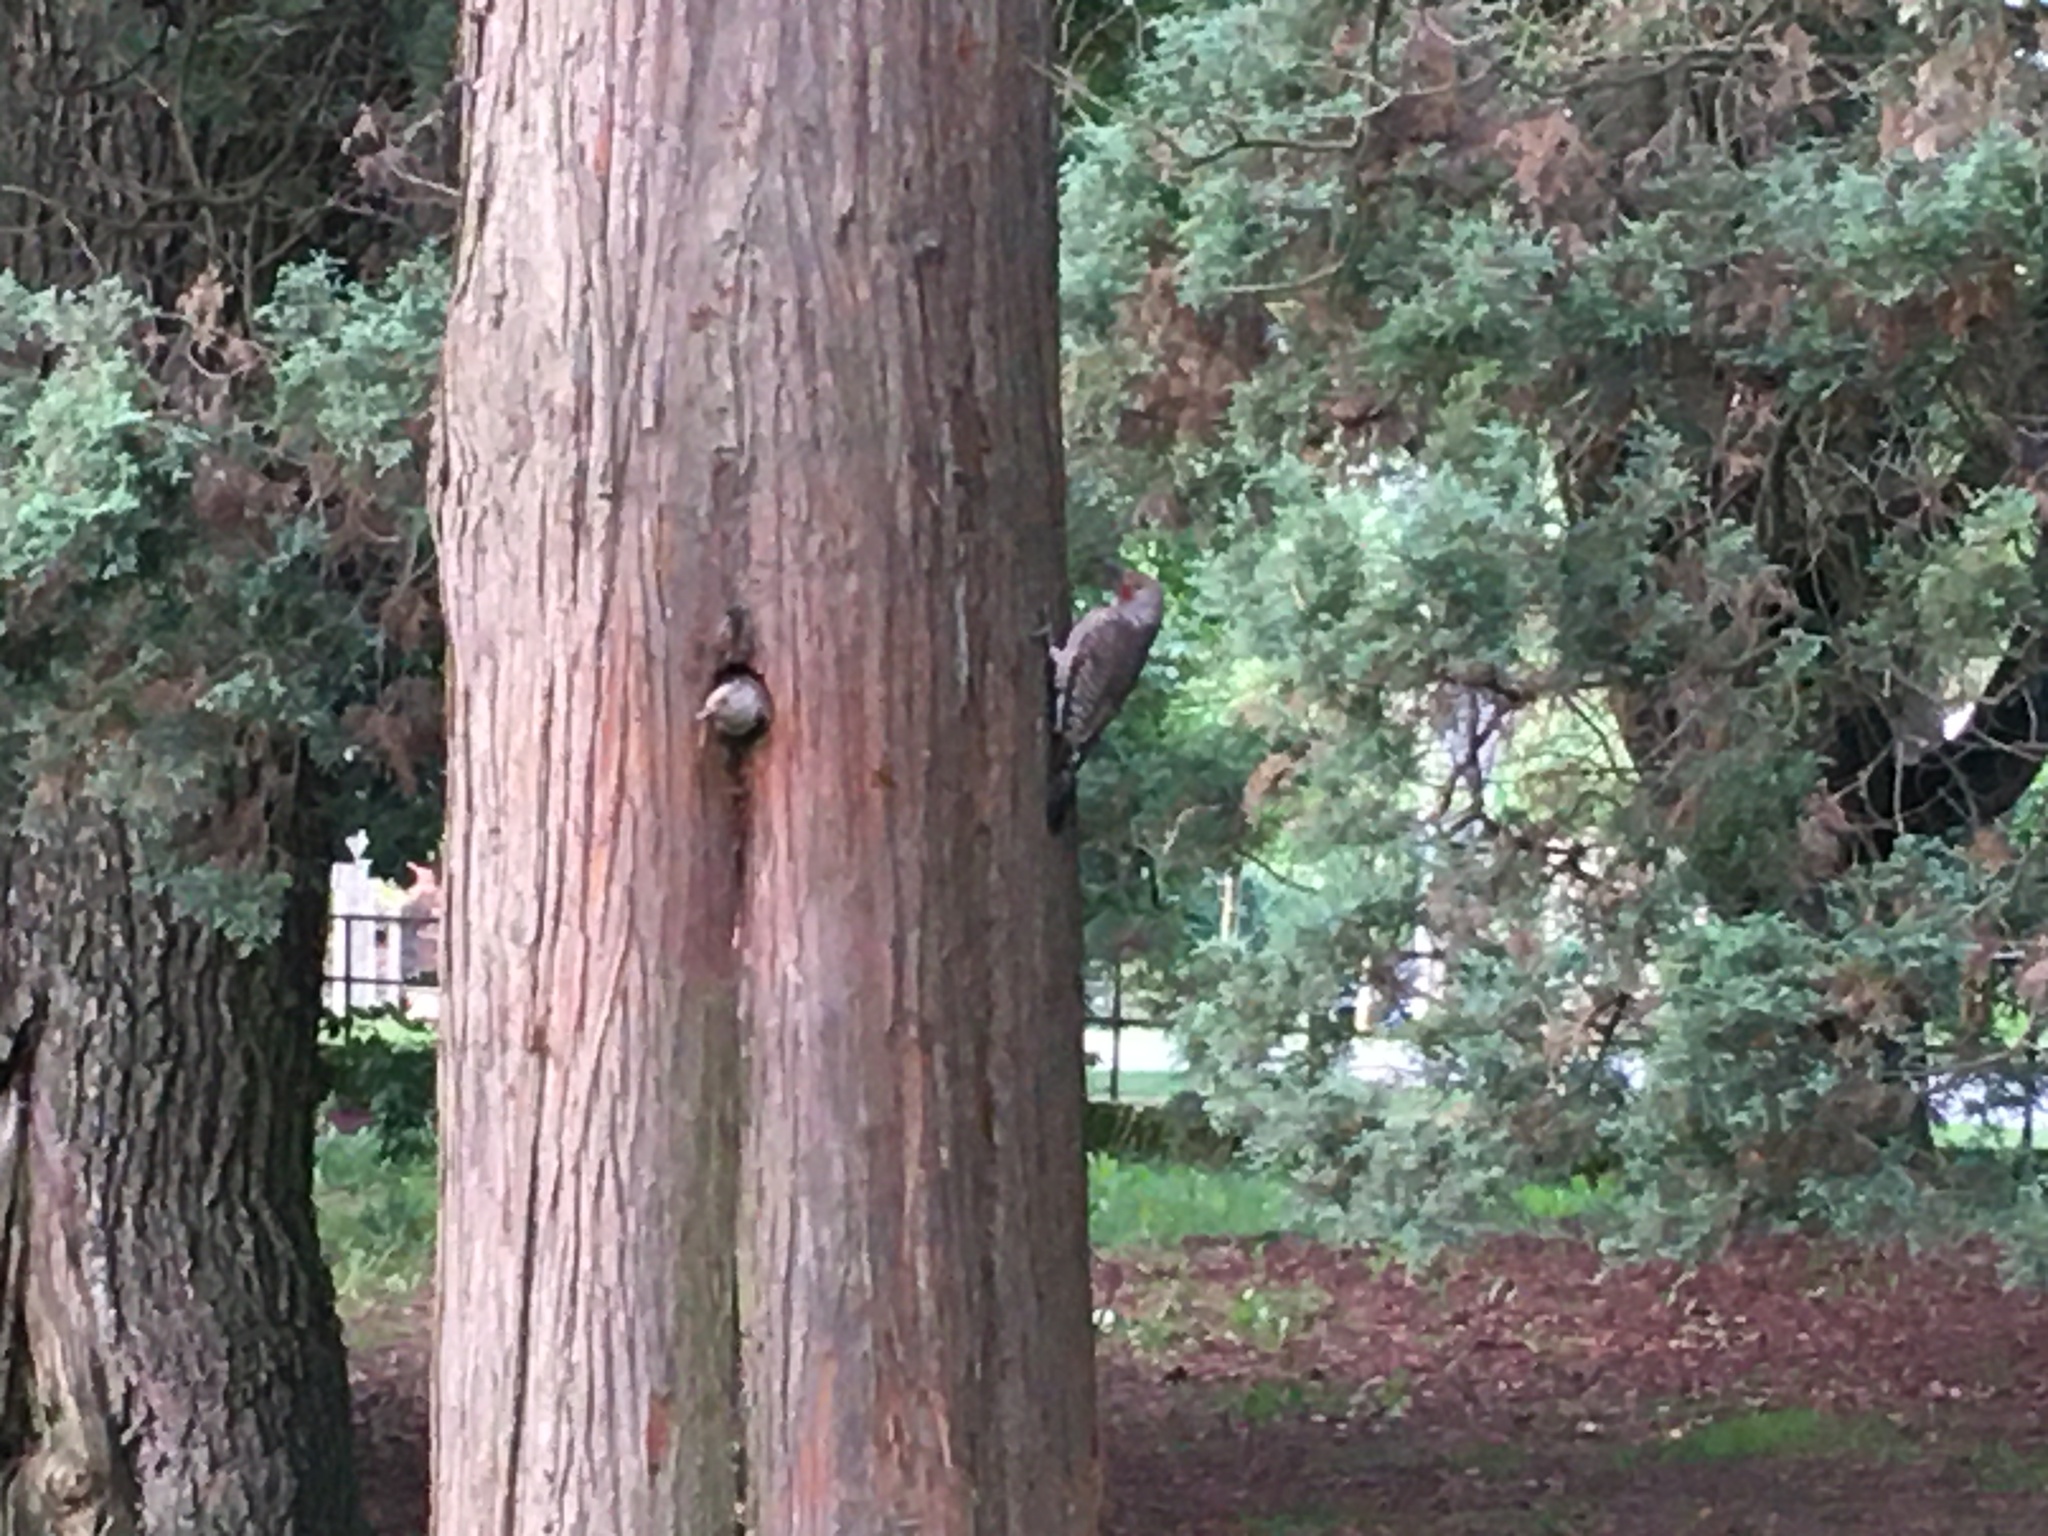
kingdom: Animalia
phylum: Chordata
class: Aves
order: Piciformes
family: Picidae
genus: Colaptes
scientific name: Colaptes auratus
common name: Northern flicker
